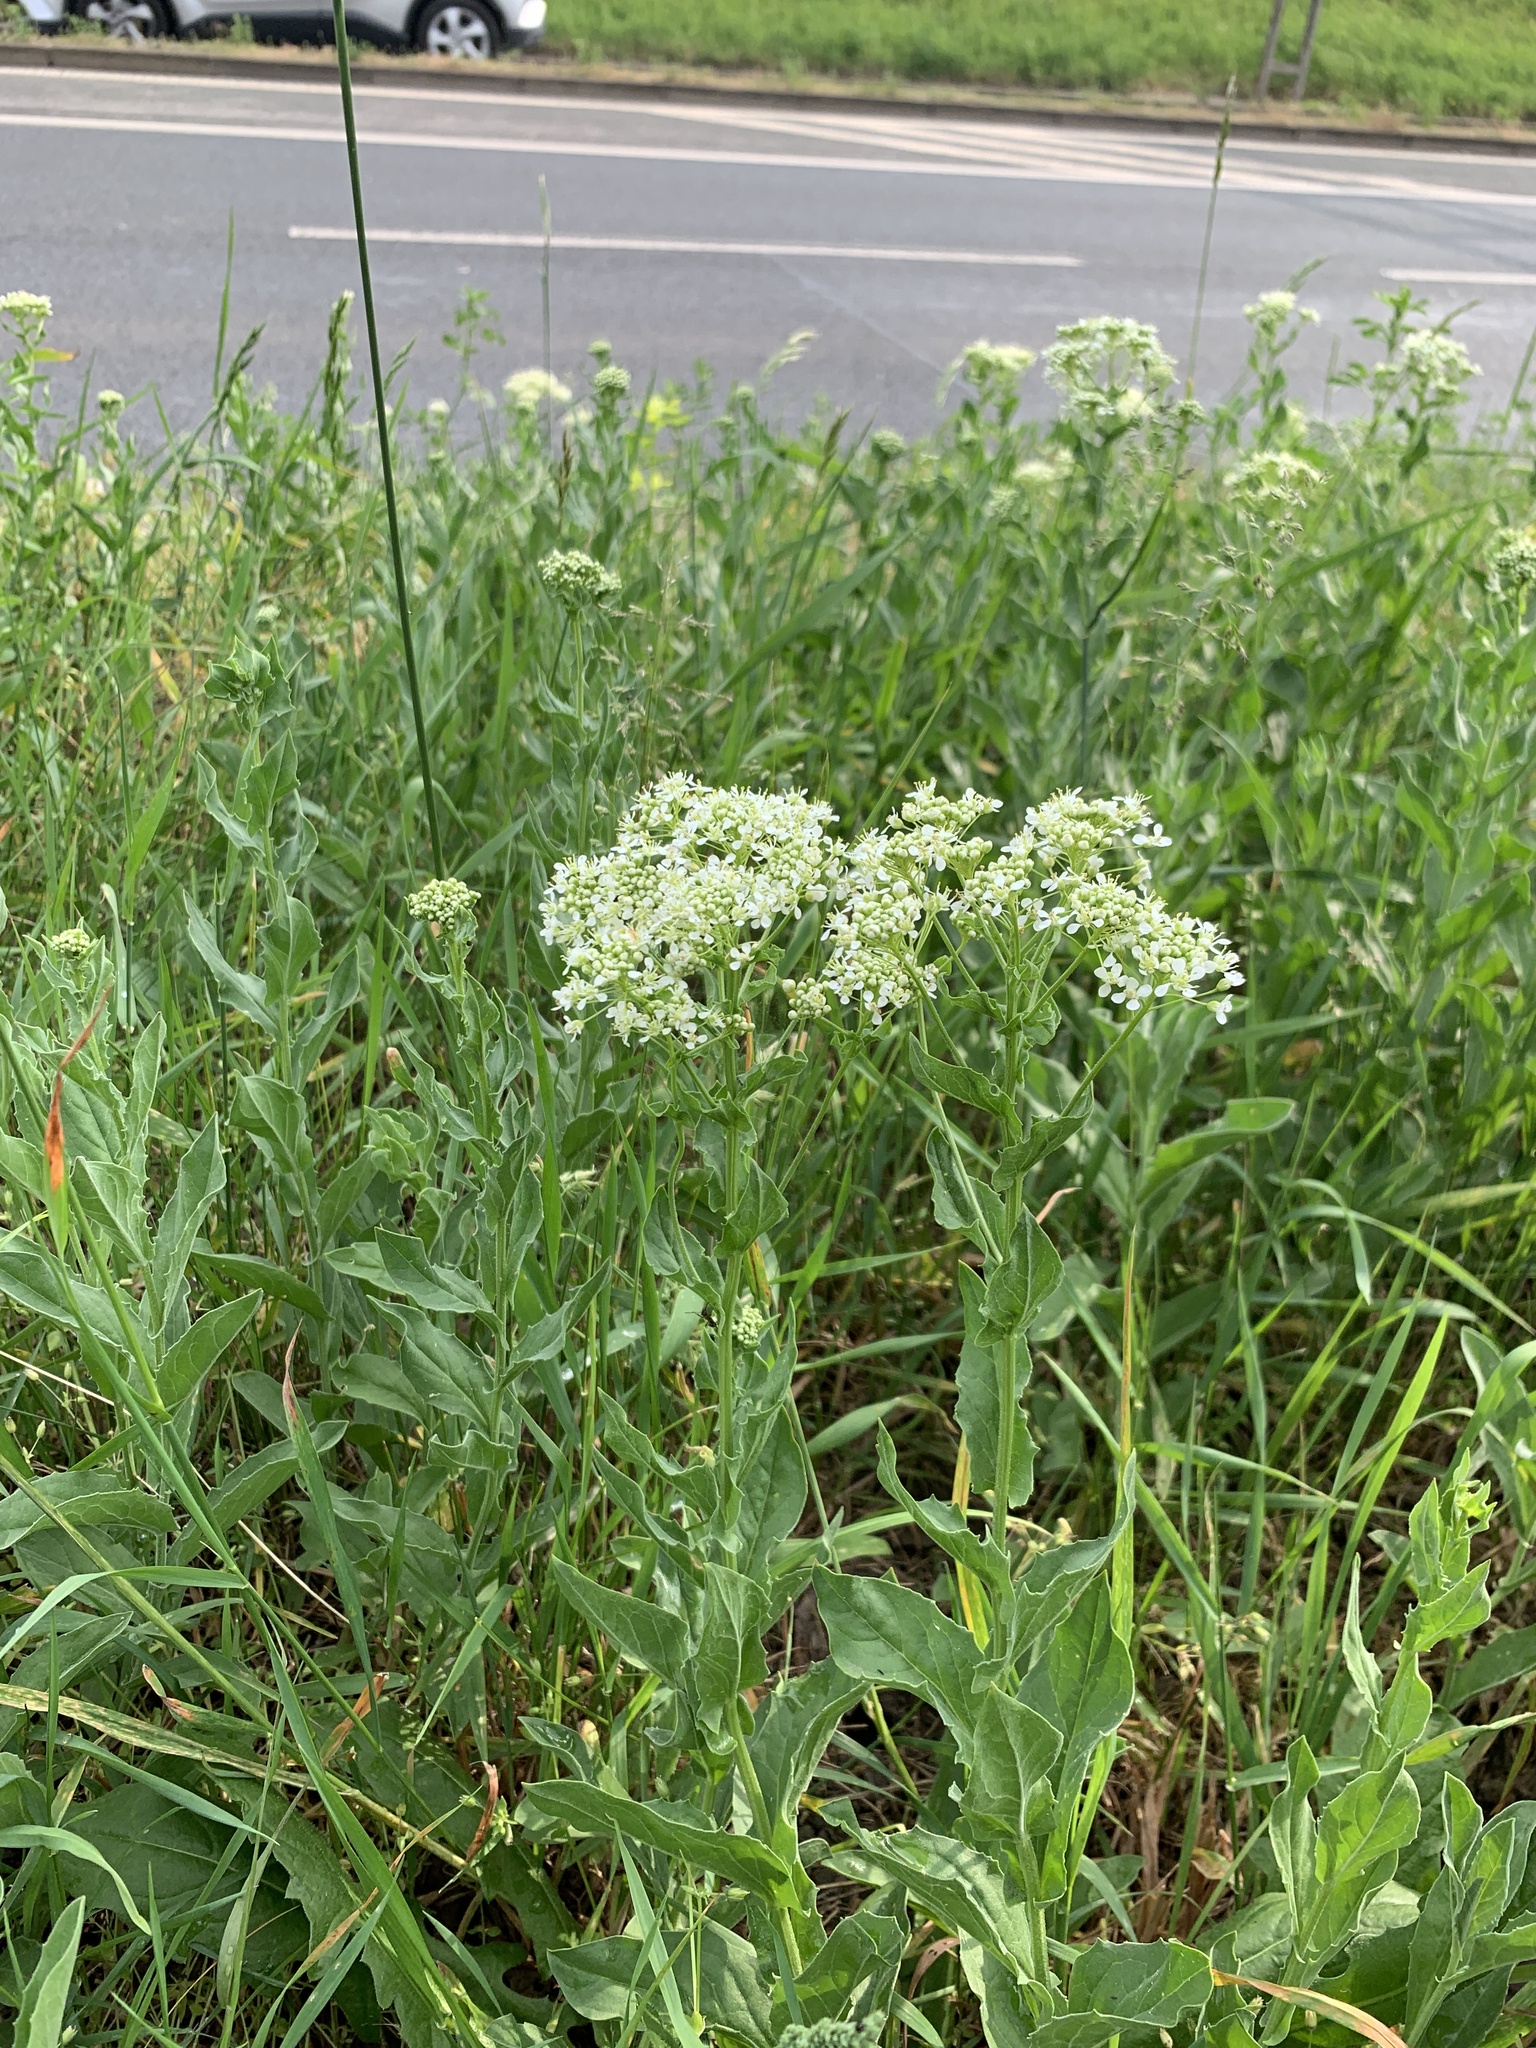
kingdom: Plantae
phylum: Tracheophyta
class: Magnoliopsida
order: Brassicales
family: Brassicaceae
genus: Lepidium
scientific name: Lepidium draba
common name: Hoary cress
